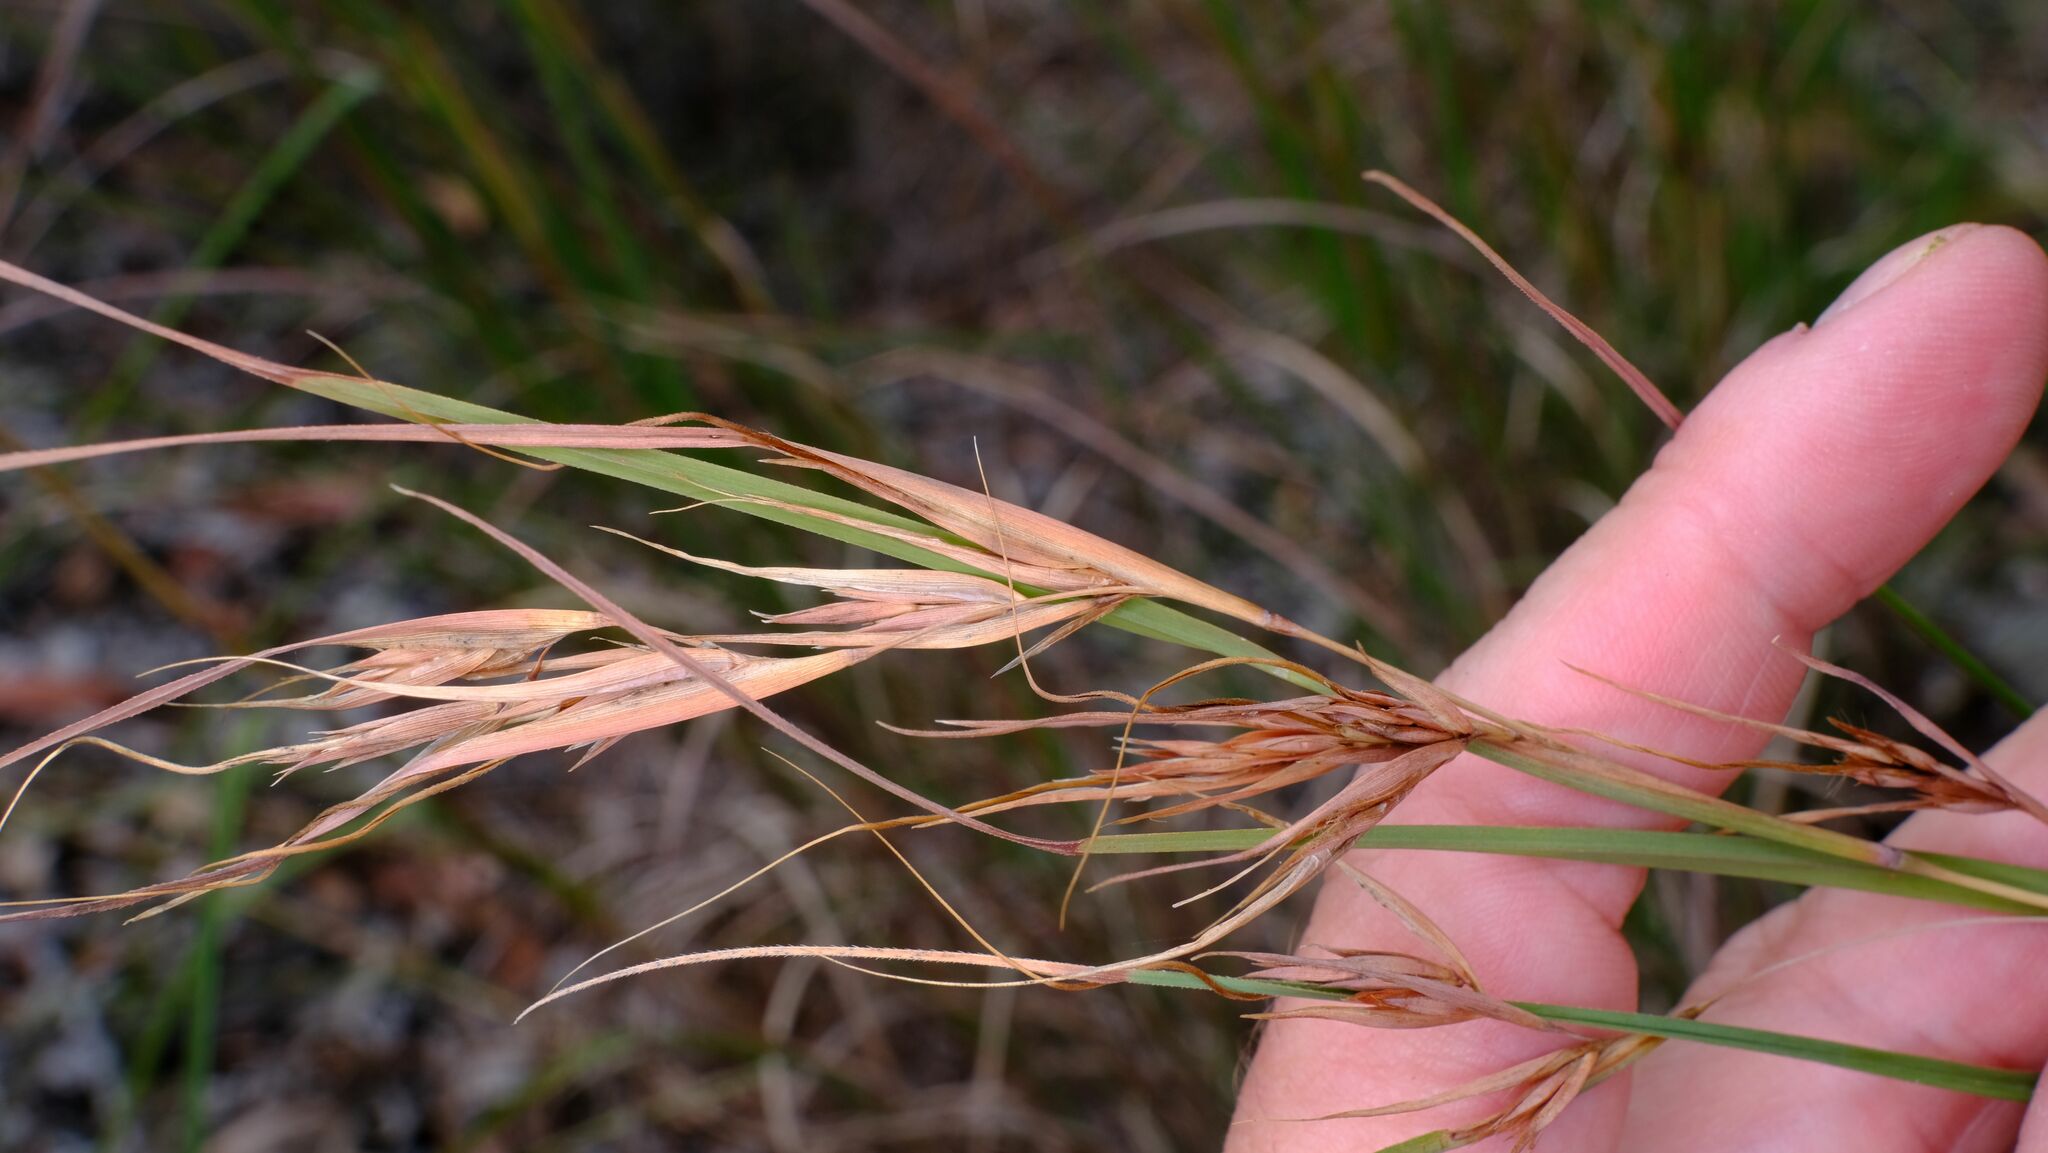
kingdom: Plantae
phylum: Tracheophyta
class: Liliopsida
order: Poales
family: Poaceae
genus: Themeda
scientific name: Themeda triandra
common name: Kangaroo grass
